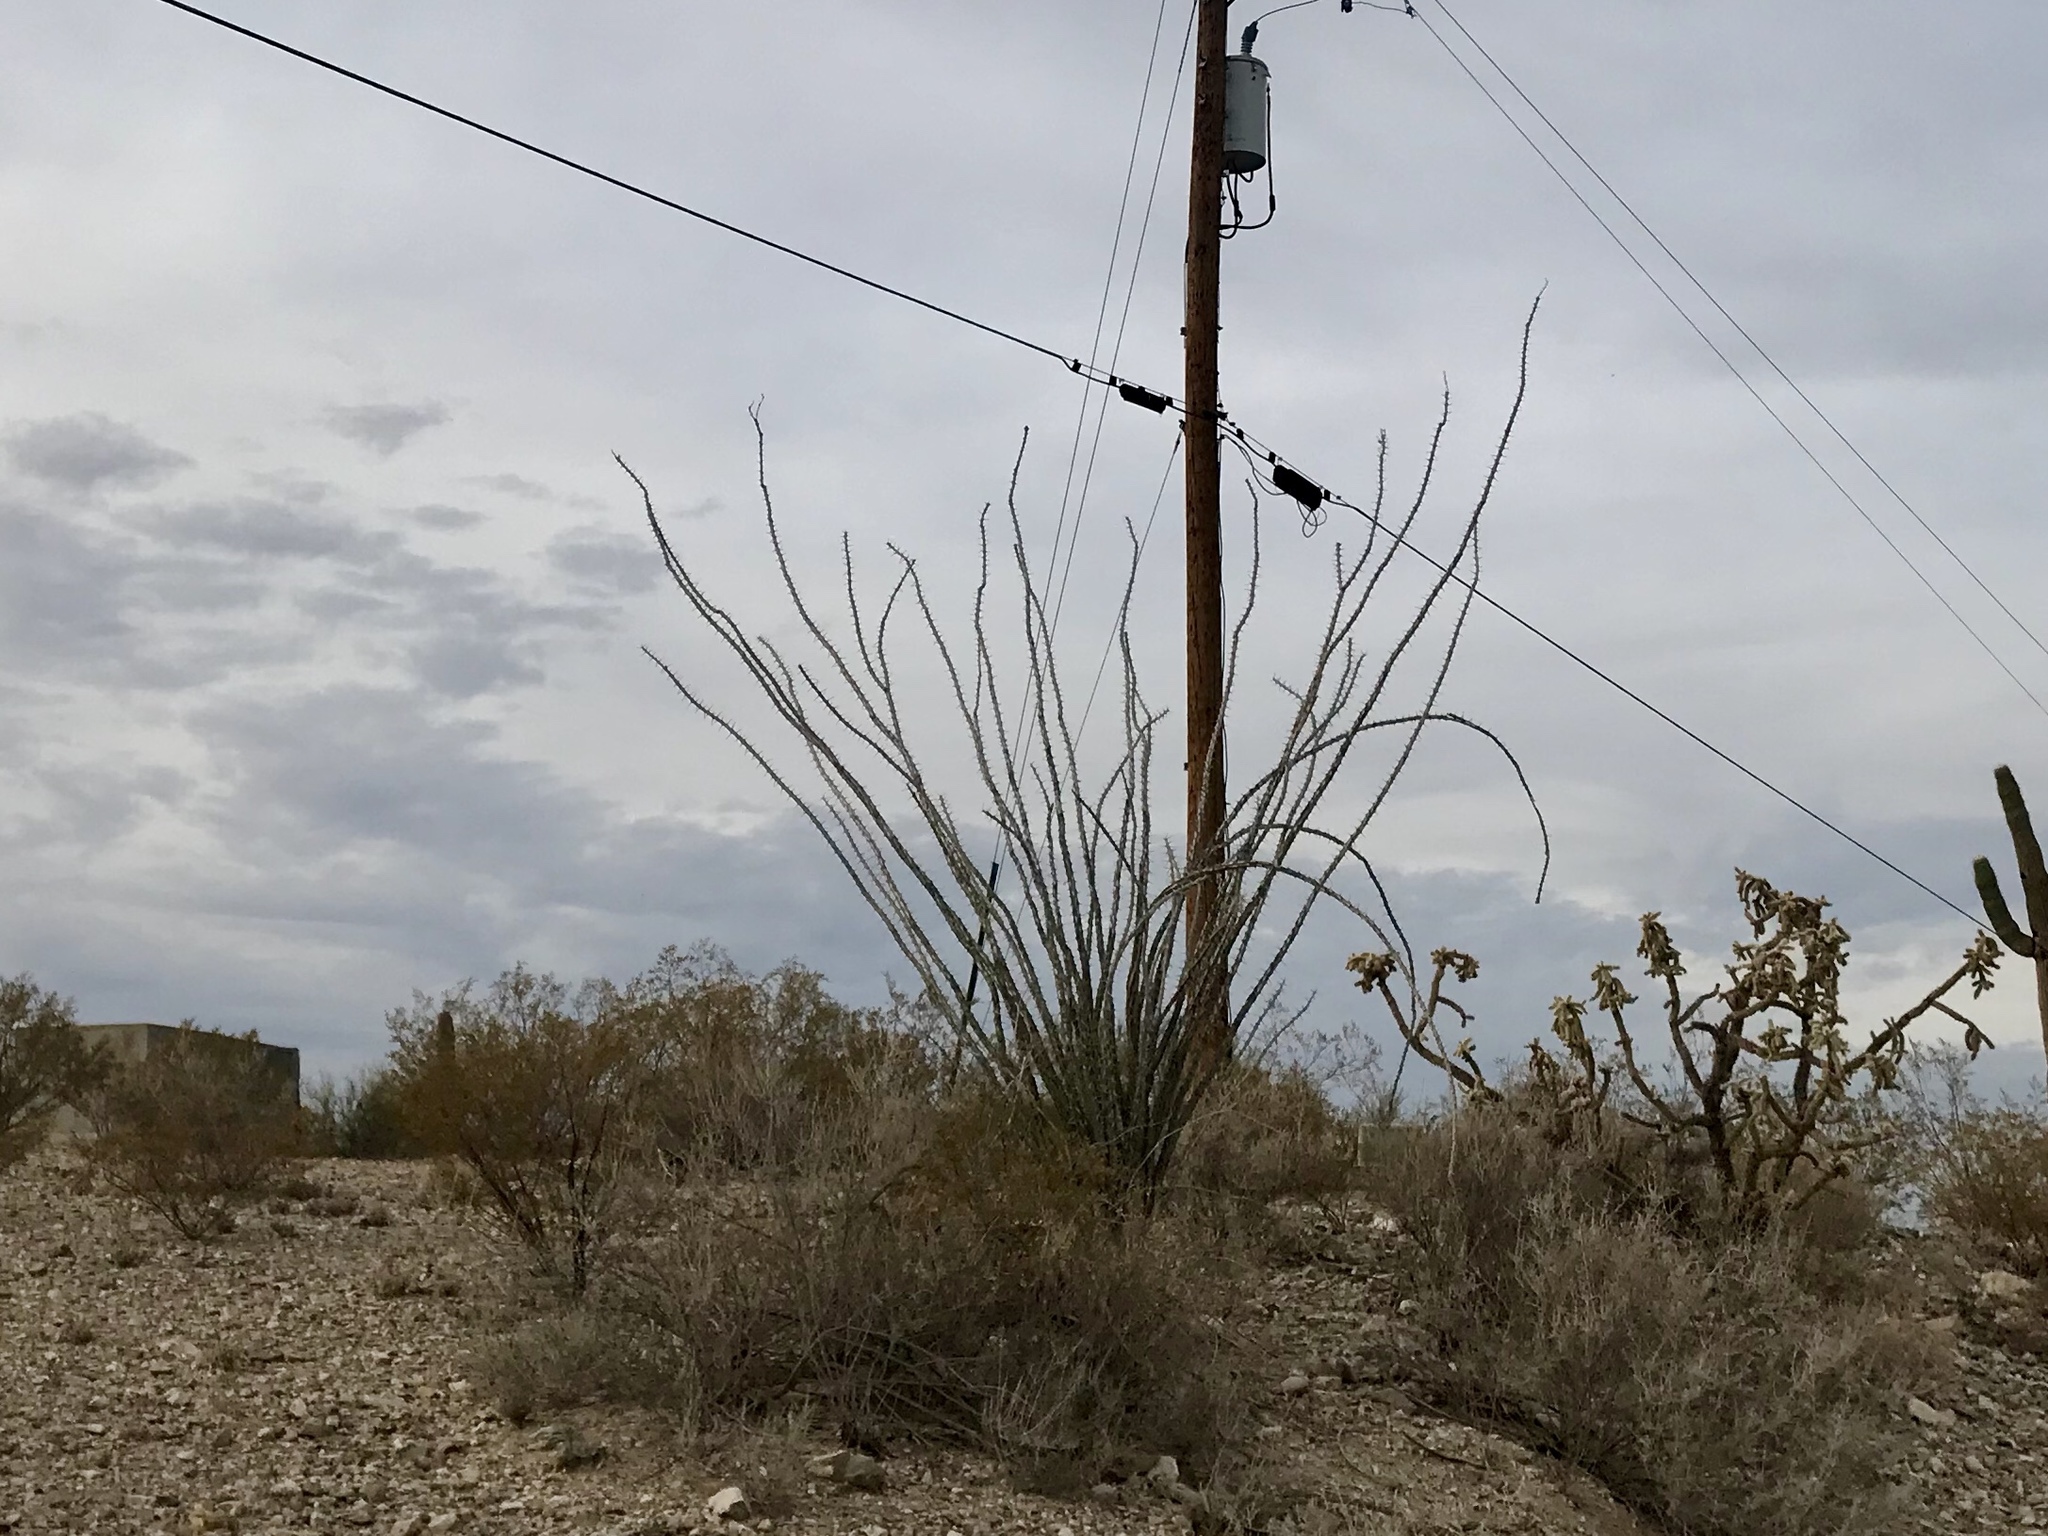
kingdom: Plantae
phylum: Tracheophyta
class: Magnoliopsida
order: Ericales
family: Fouquieriaceae
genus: Fouquieria
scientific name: Fouquieria splendens
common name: Vine-cactus
